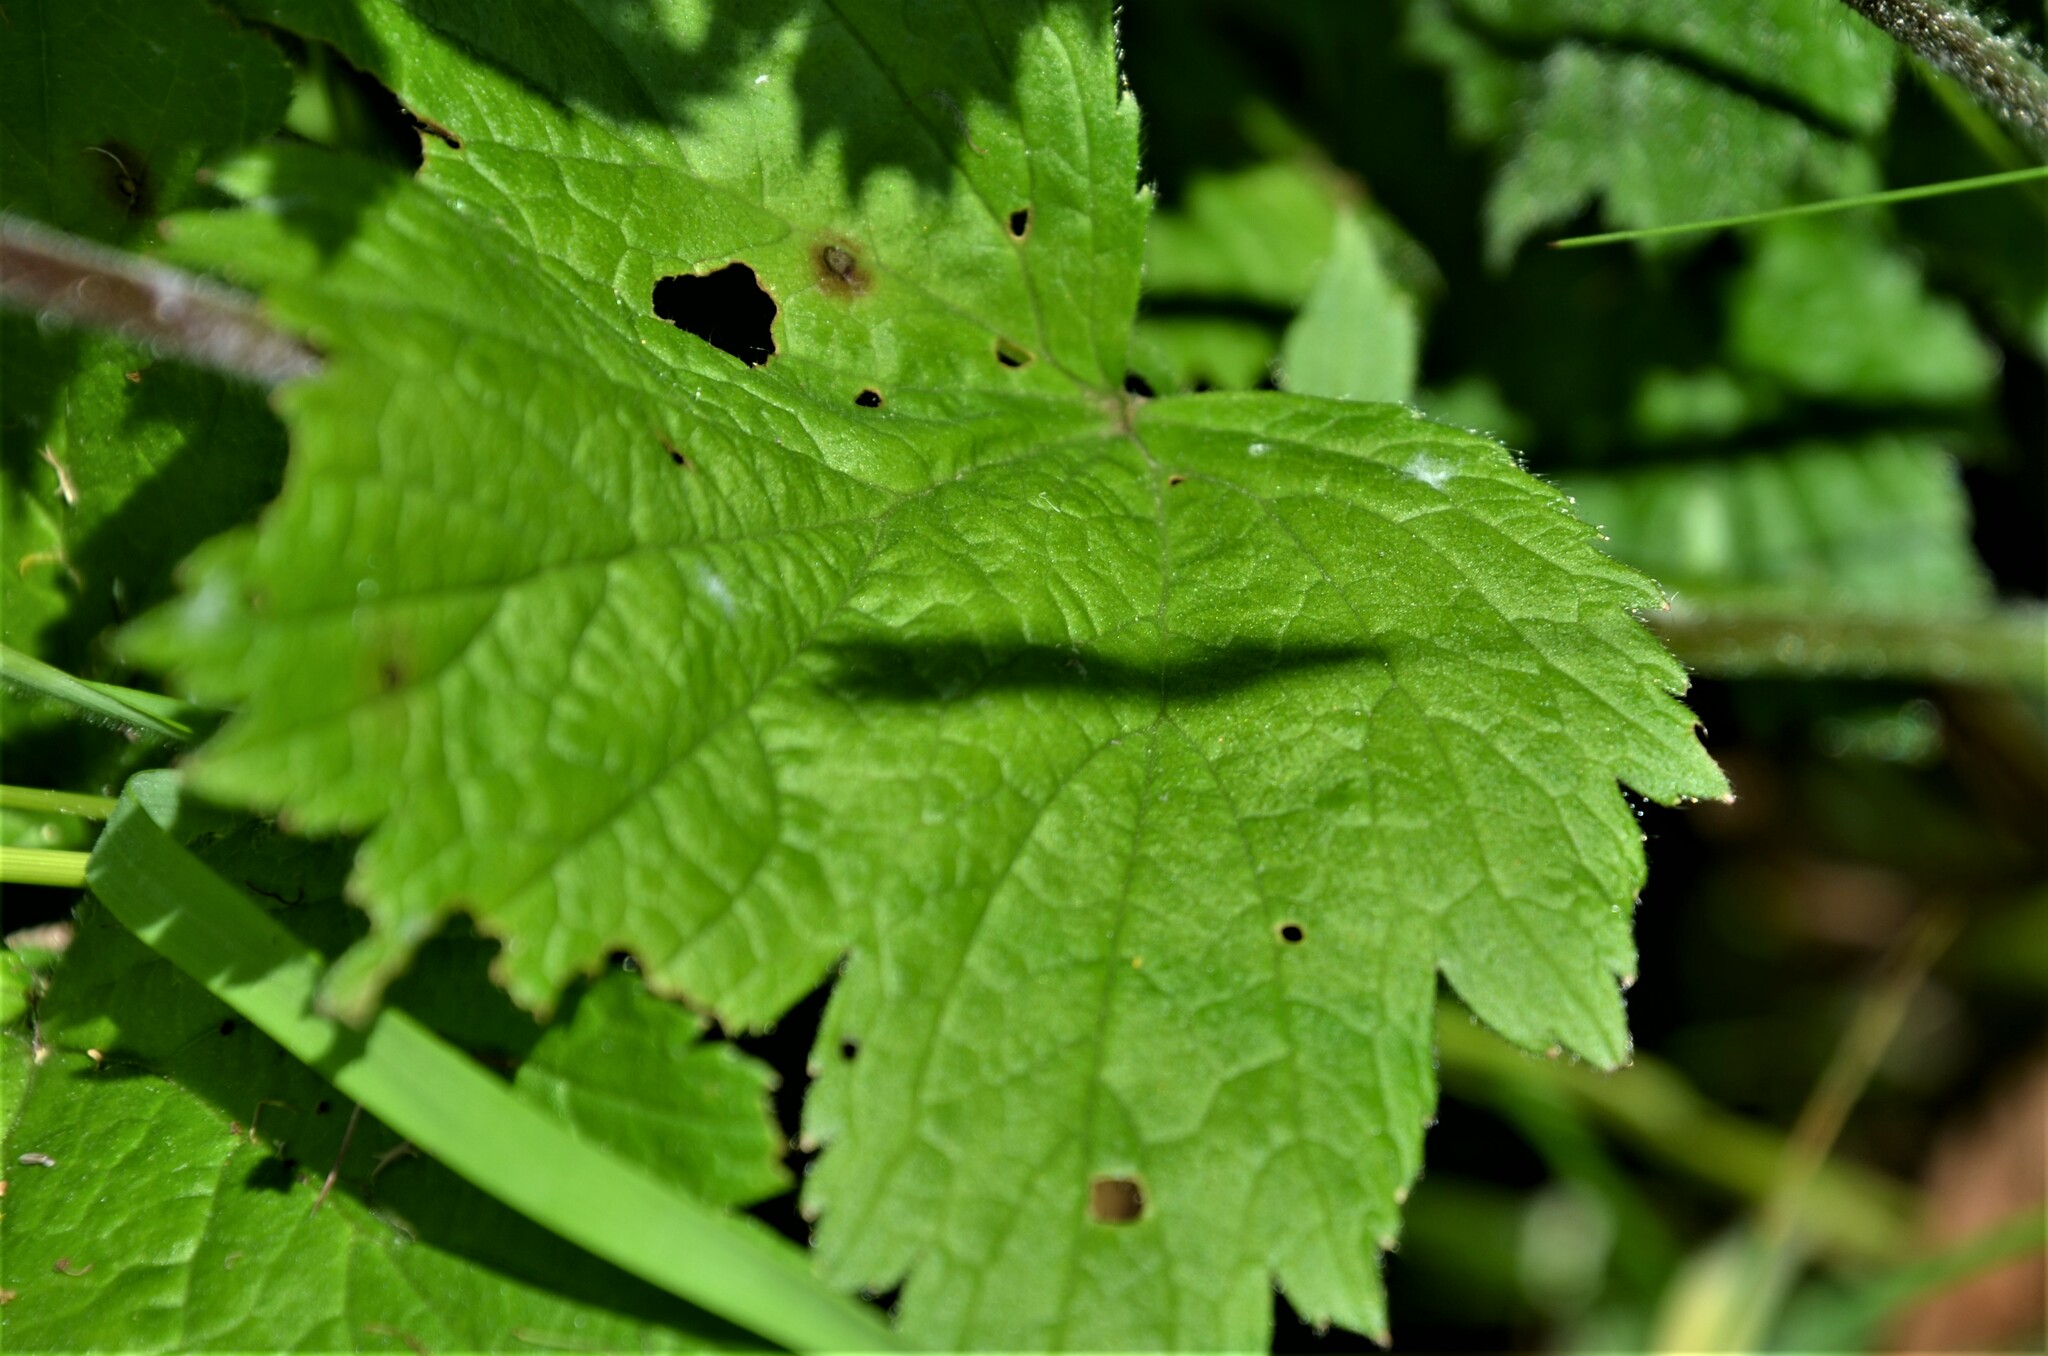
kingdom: Plantae
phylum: Tracheophyta
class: Magnoliopsida
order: Rosales
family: Rosaceae
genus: Geum
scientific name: Geum rivale
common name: Water avens
